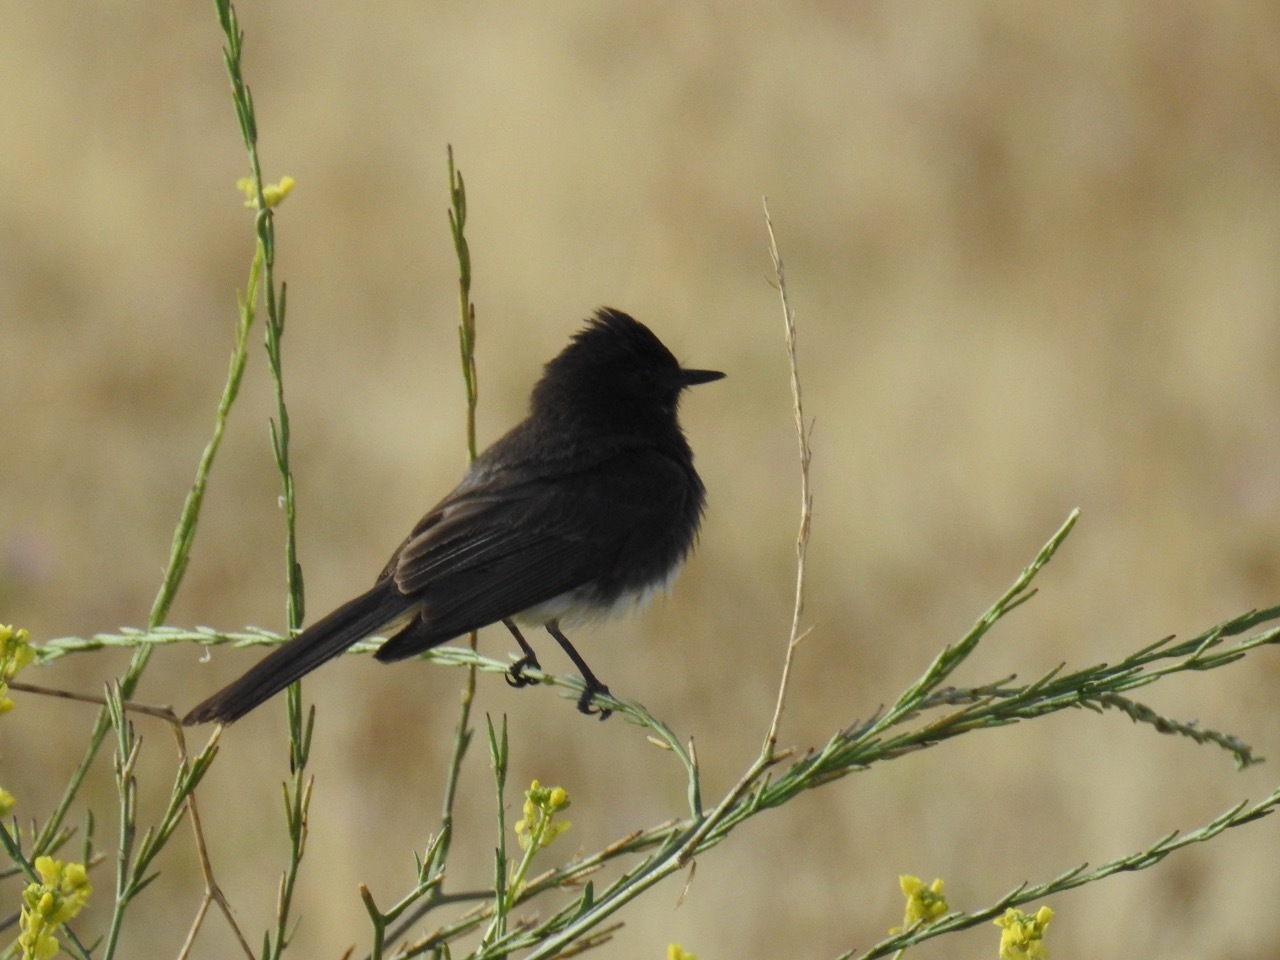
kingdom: Animalia
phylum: Chordata
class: Aves
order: Passeriformes
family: Tyrannidae
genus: Sayornis
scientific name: Sayornis nigricans
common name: Black phoebe
